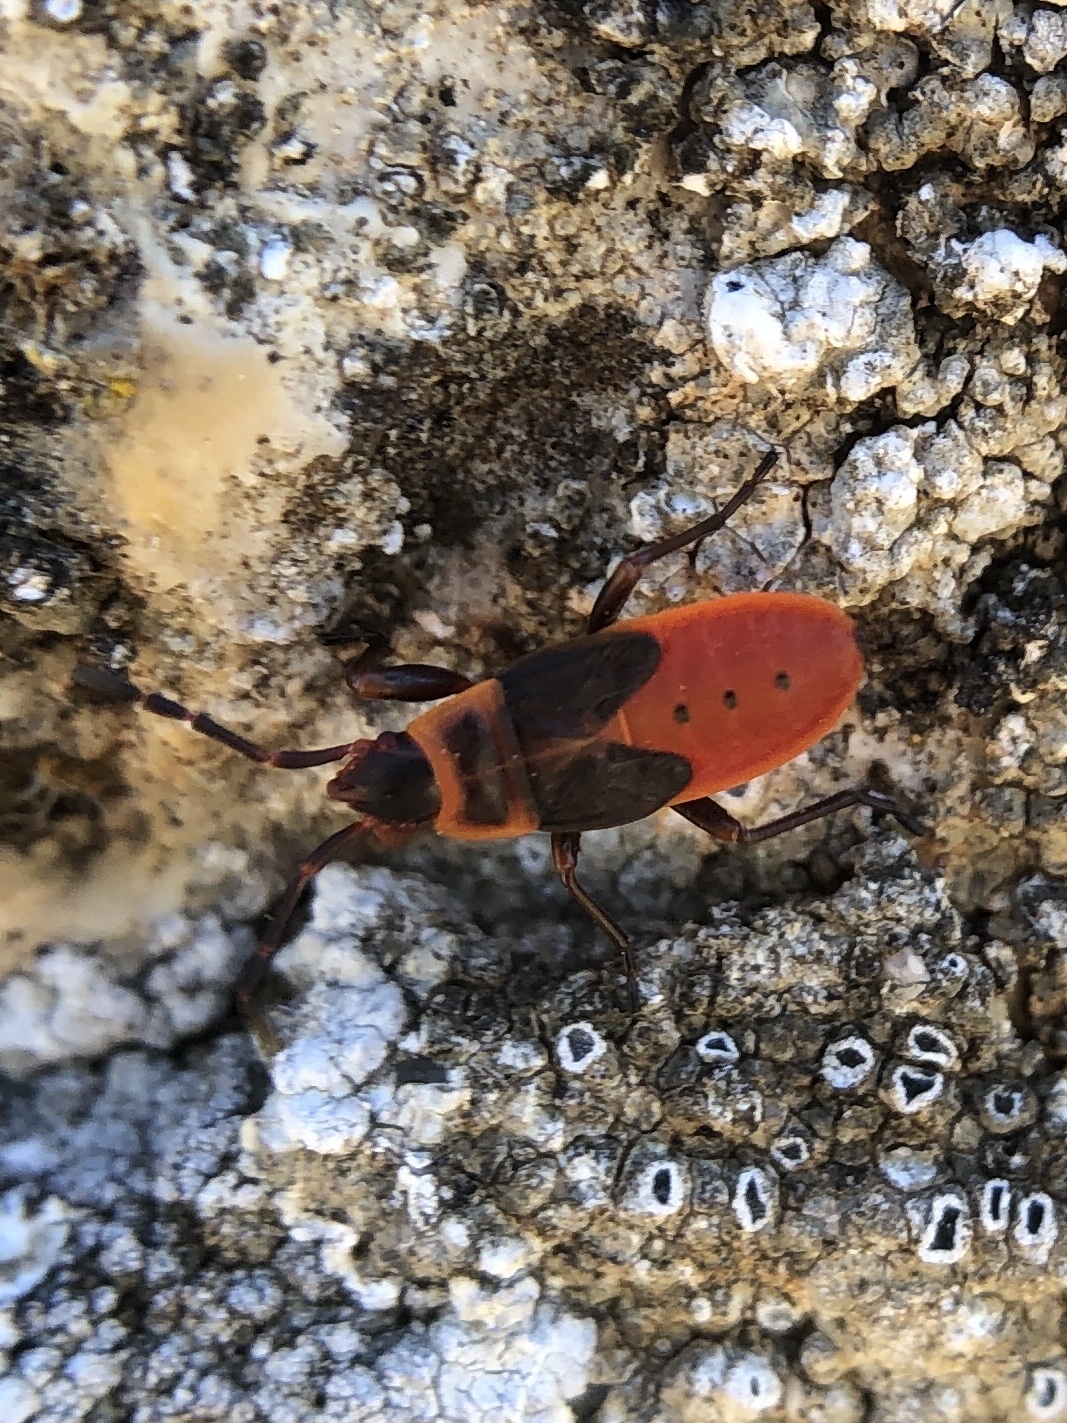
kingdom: Animalia
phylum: Arthropoda
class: Insecta
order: Hemiptera
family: Pyrrhocoridae
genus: Scantius
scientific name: Scantius aegyptius
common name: Red bug
